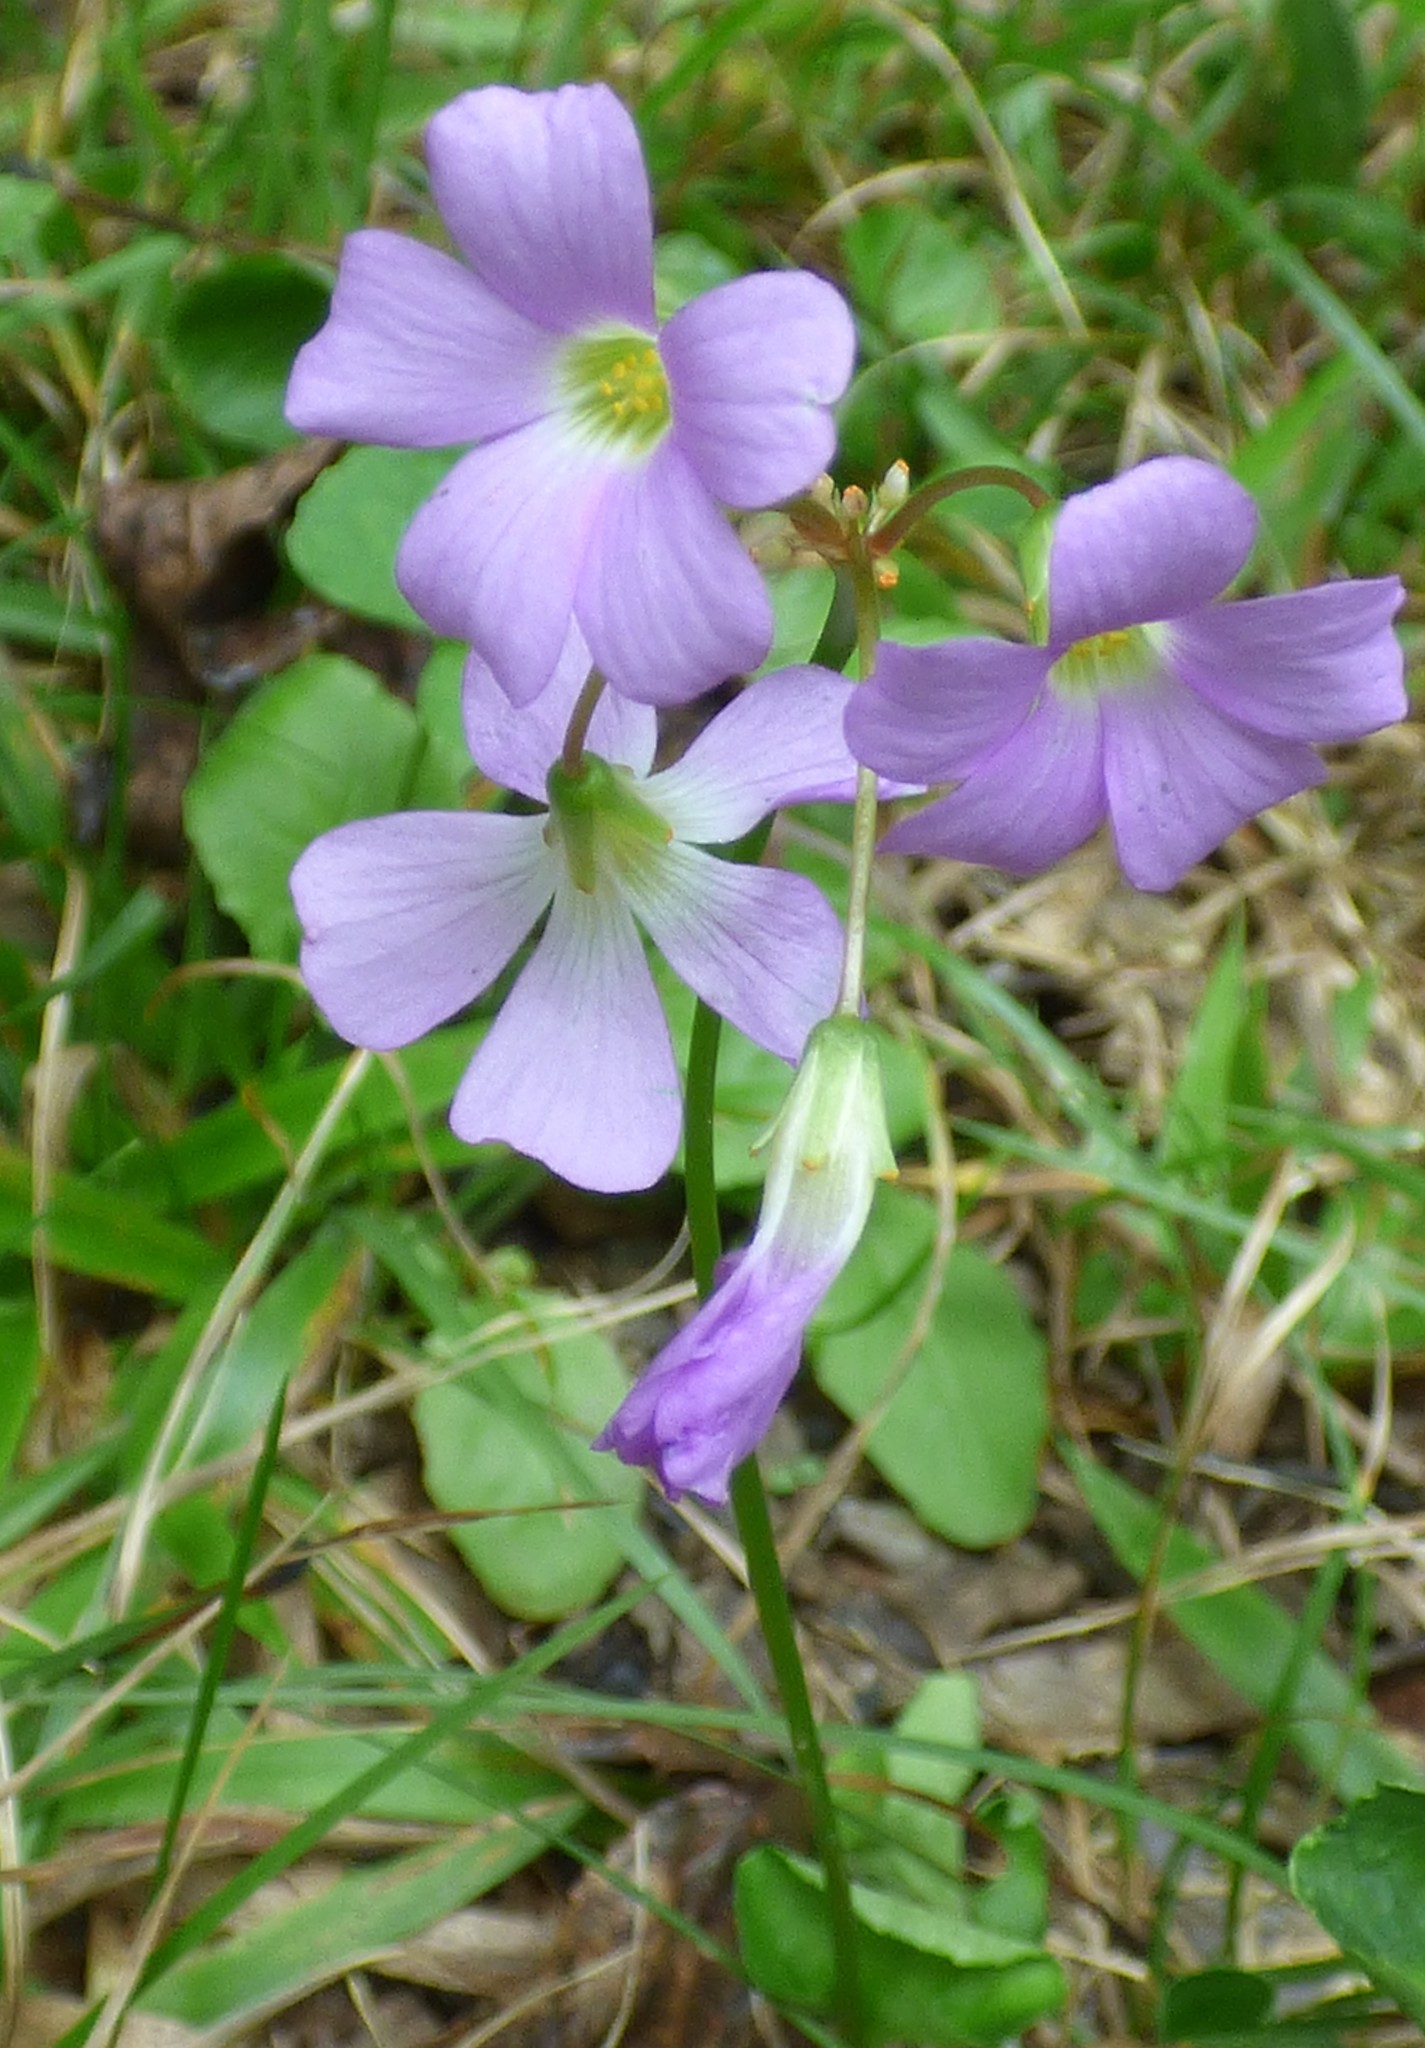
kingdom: Plantae
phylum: Tracheophyta
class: Magnoliopsida
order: Oxalidales
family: Oxalidaceae
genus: Oxalis
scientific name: Oxalis violacea
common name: Violet wood-sorrel
